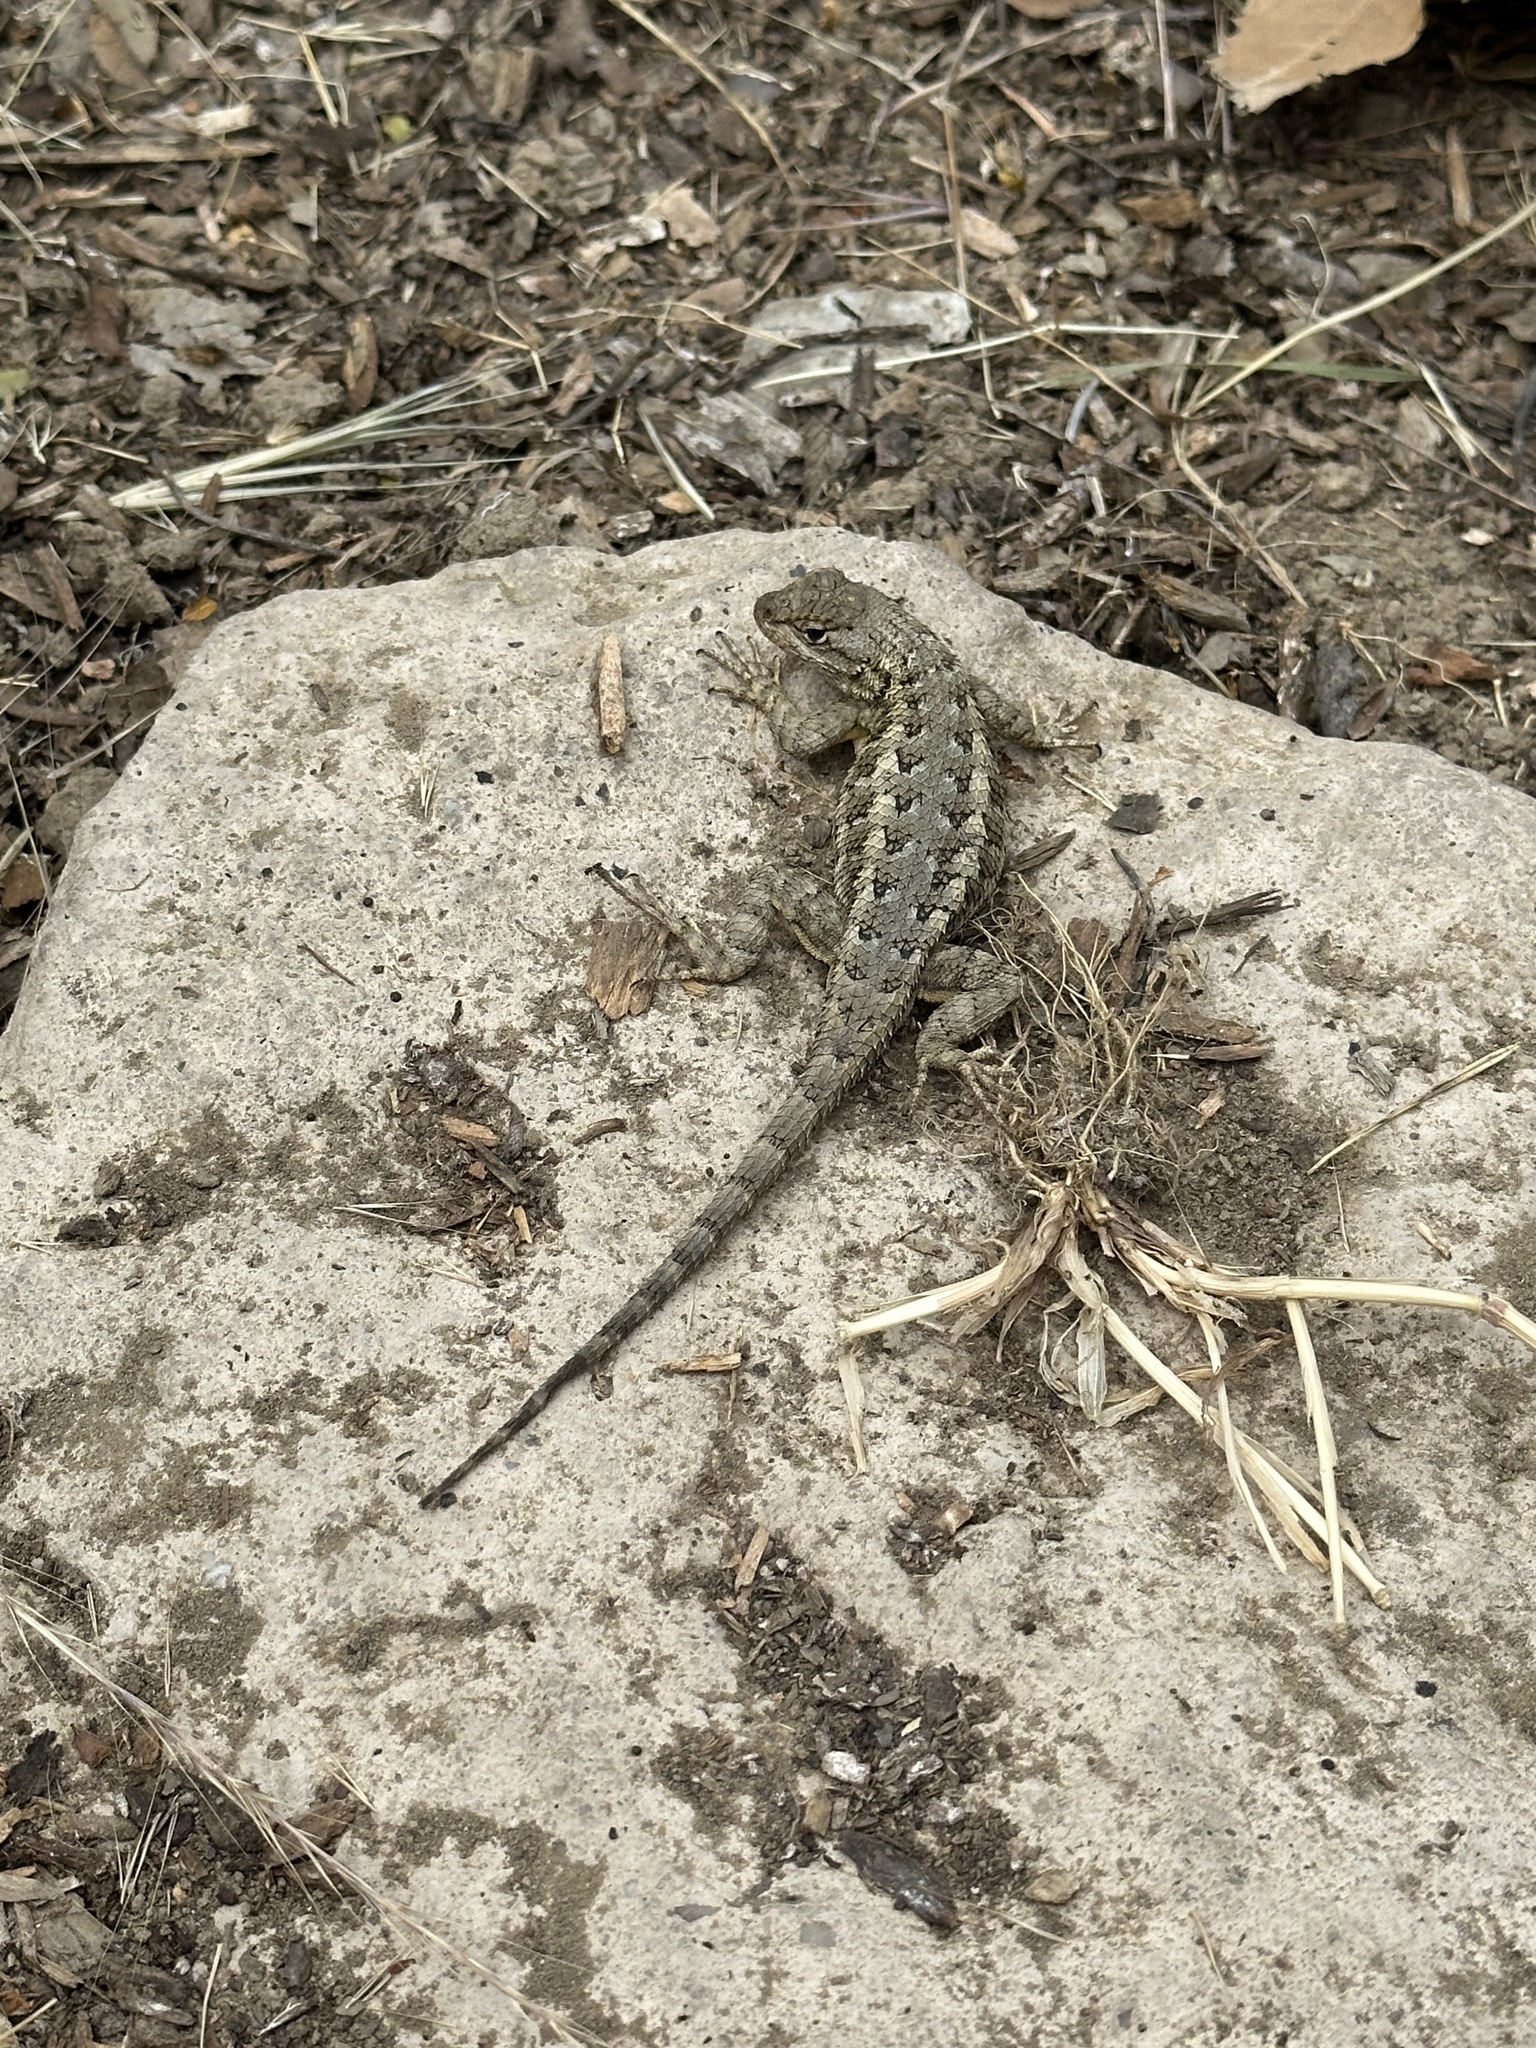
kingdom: Animalia
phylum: Chordata
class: Squamata
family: Phrynosomatidae
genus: Sceloporus
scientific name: Sceloporus occidentalis
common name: Western fence lizard
